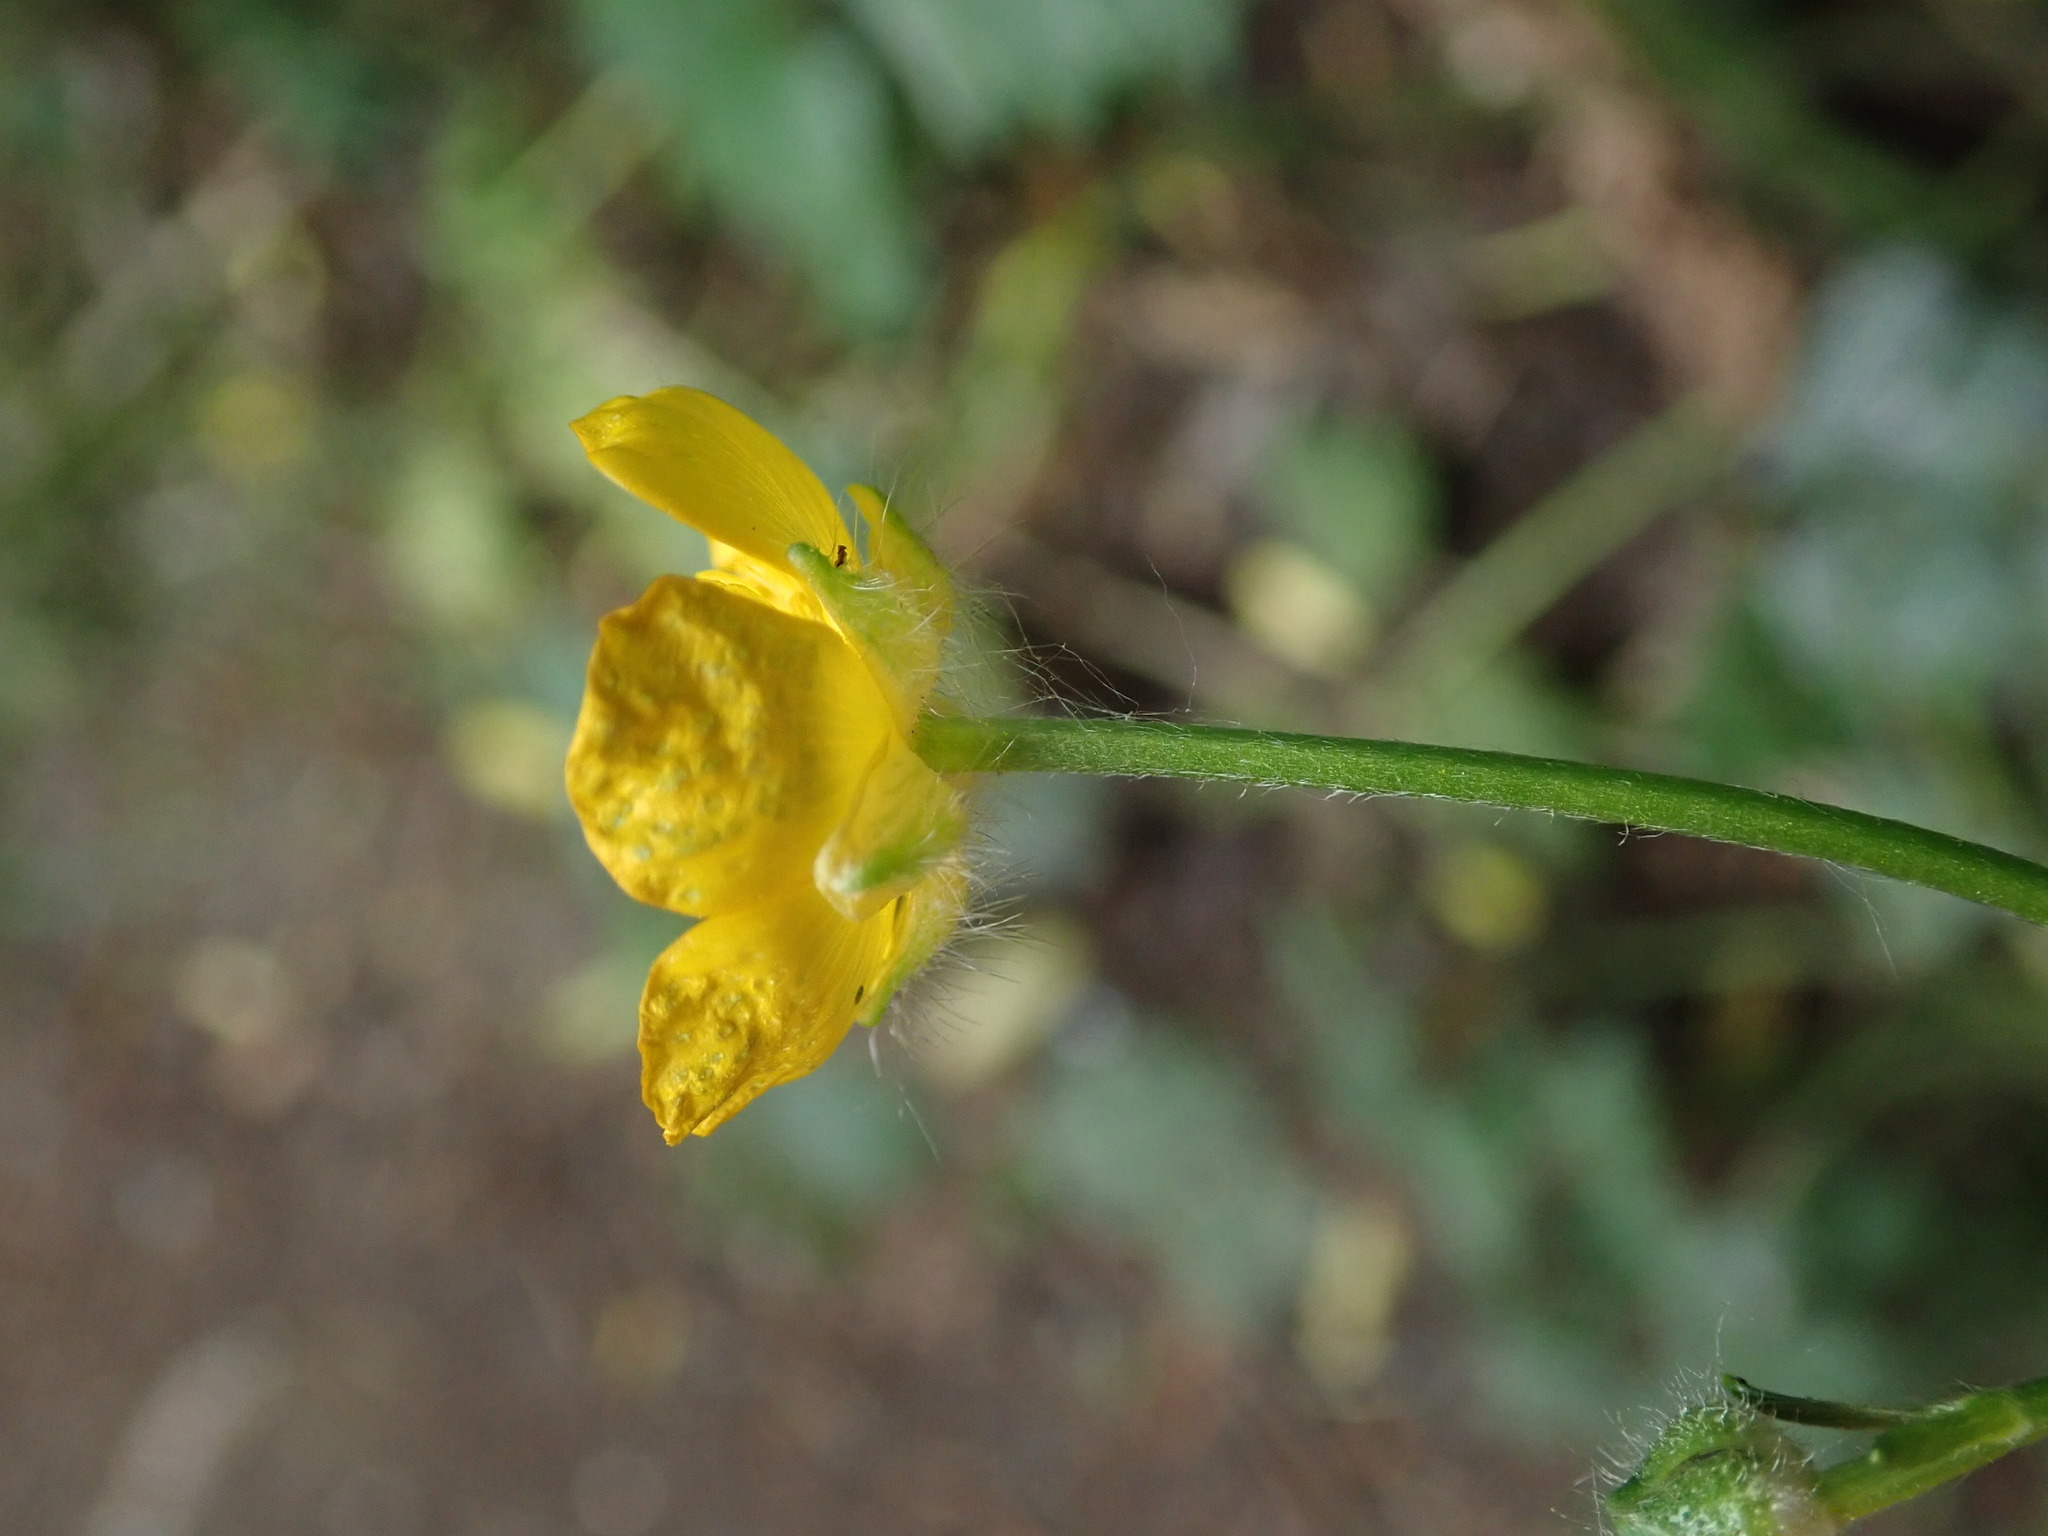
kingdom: Plantae
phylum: Tracheophyta
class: Magnoliopsida
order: Ranunculales
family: Ranunculaceae
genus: Ranunculus
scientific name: Ranunculus repens
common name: Creeping buttercup
